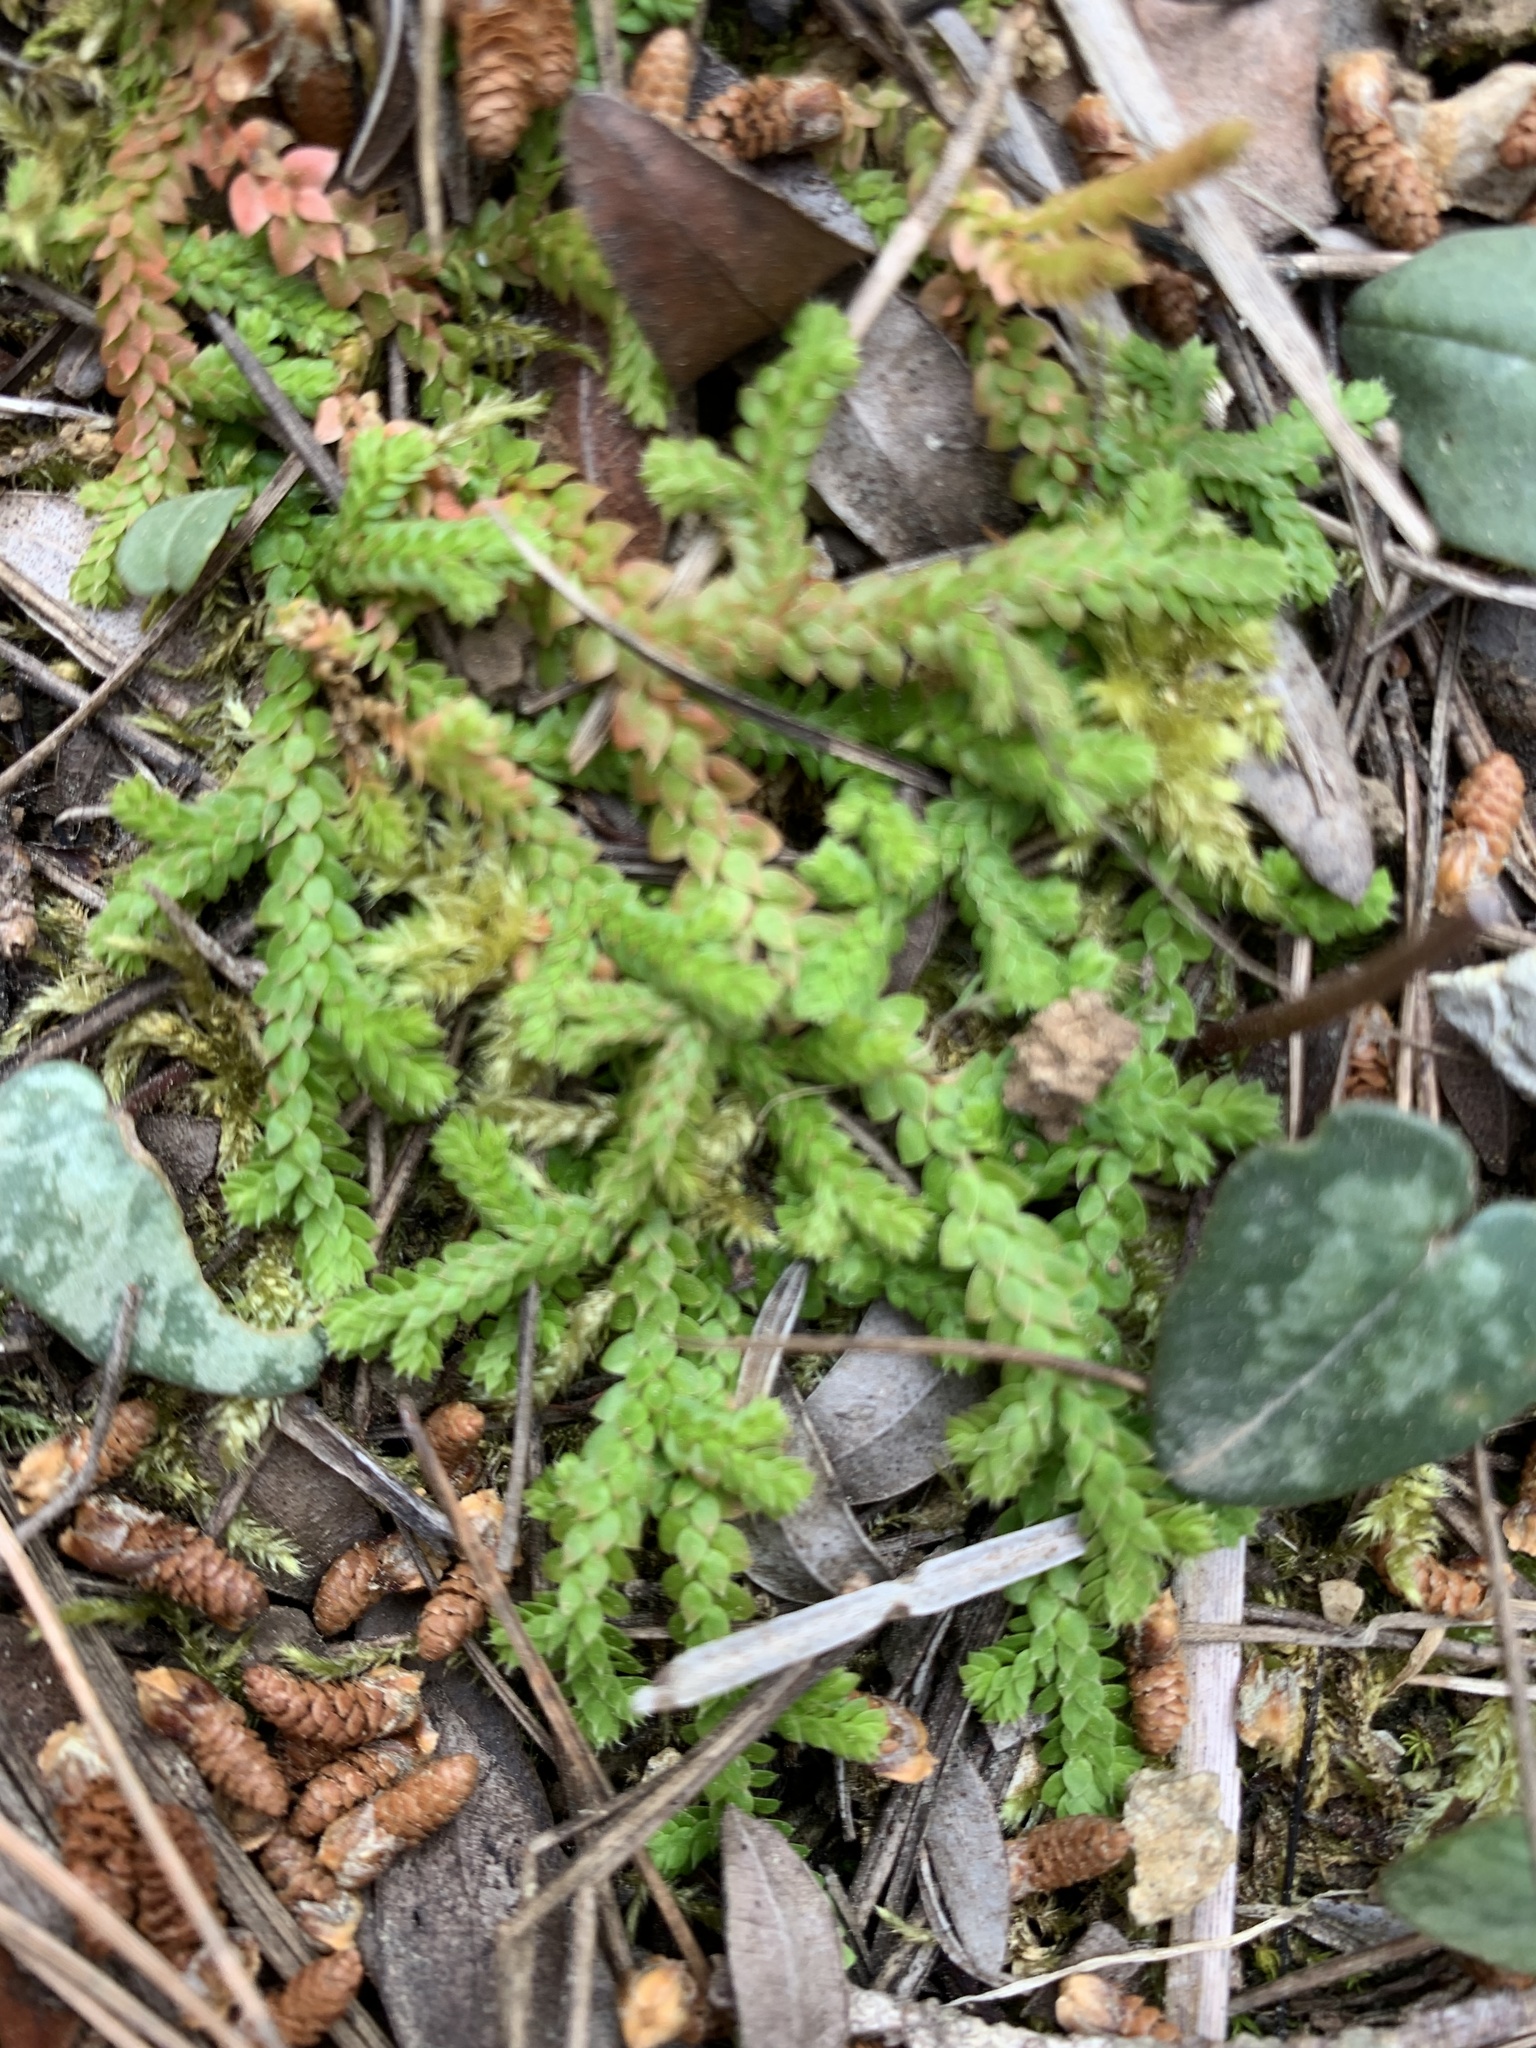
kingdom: Plantae
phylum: Tracheophyta
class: Lycopodiopsida
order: Selaginellales
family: Selaginellaceae
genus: Selaginella
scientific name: Selaginella denticulata
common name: Toothed-leaved clubmoss
